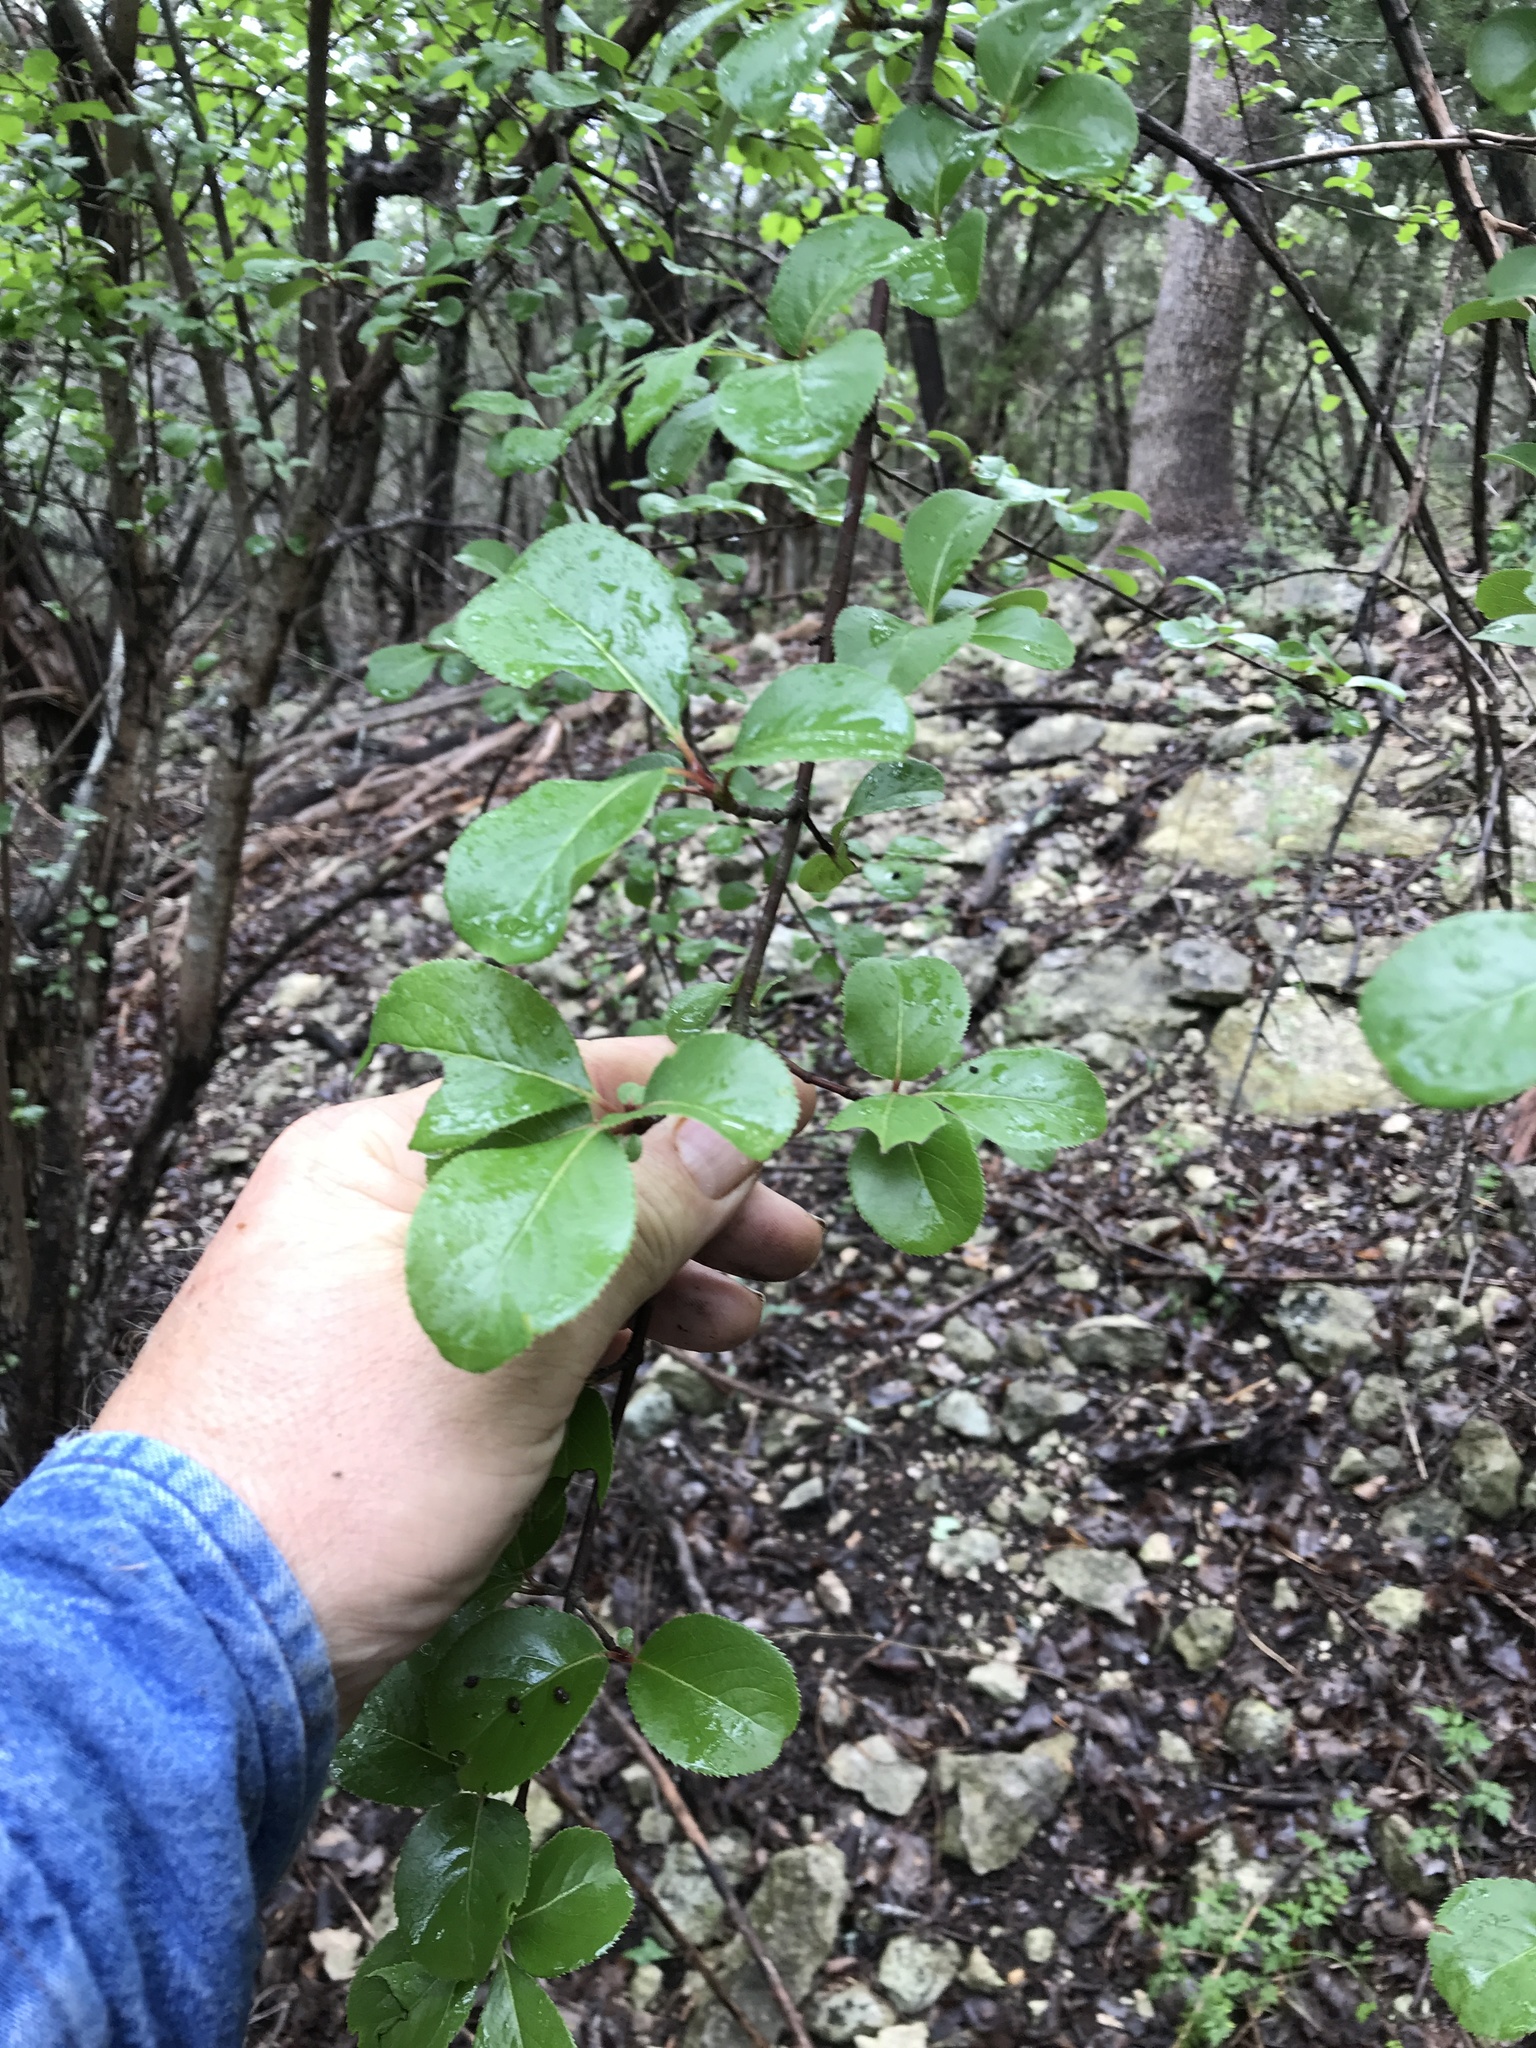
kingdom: Plantae
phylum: Tracheophyta
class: Magnoliopsida
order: Dipsacales
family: Viburnaceae
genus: Viburnum
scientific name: Viburnum rufidulum
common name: Blue haw
